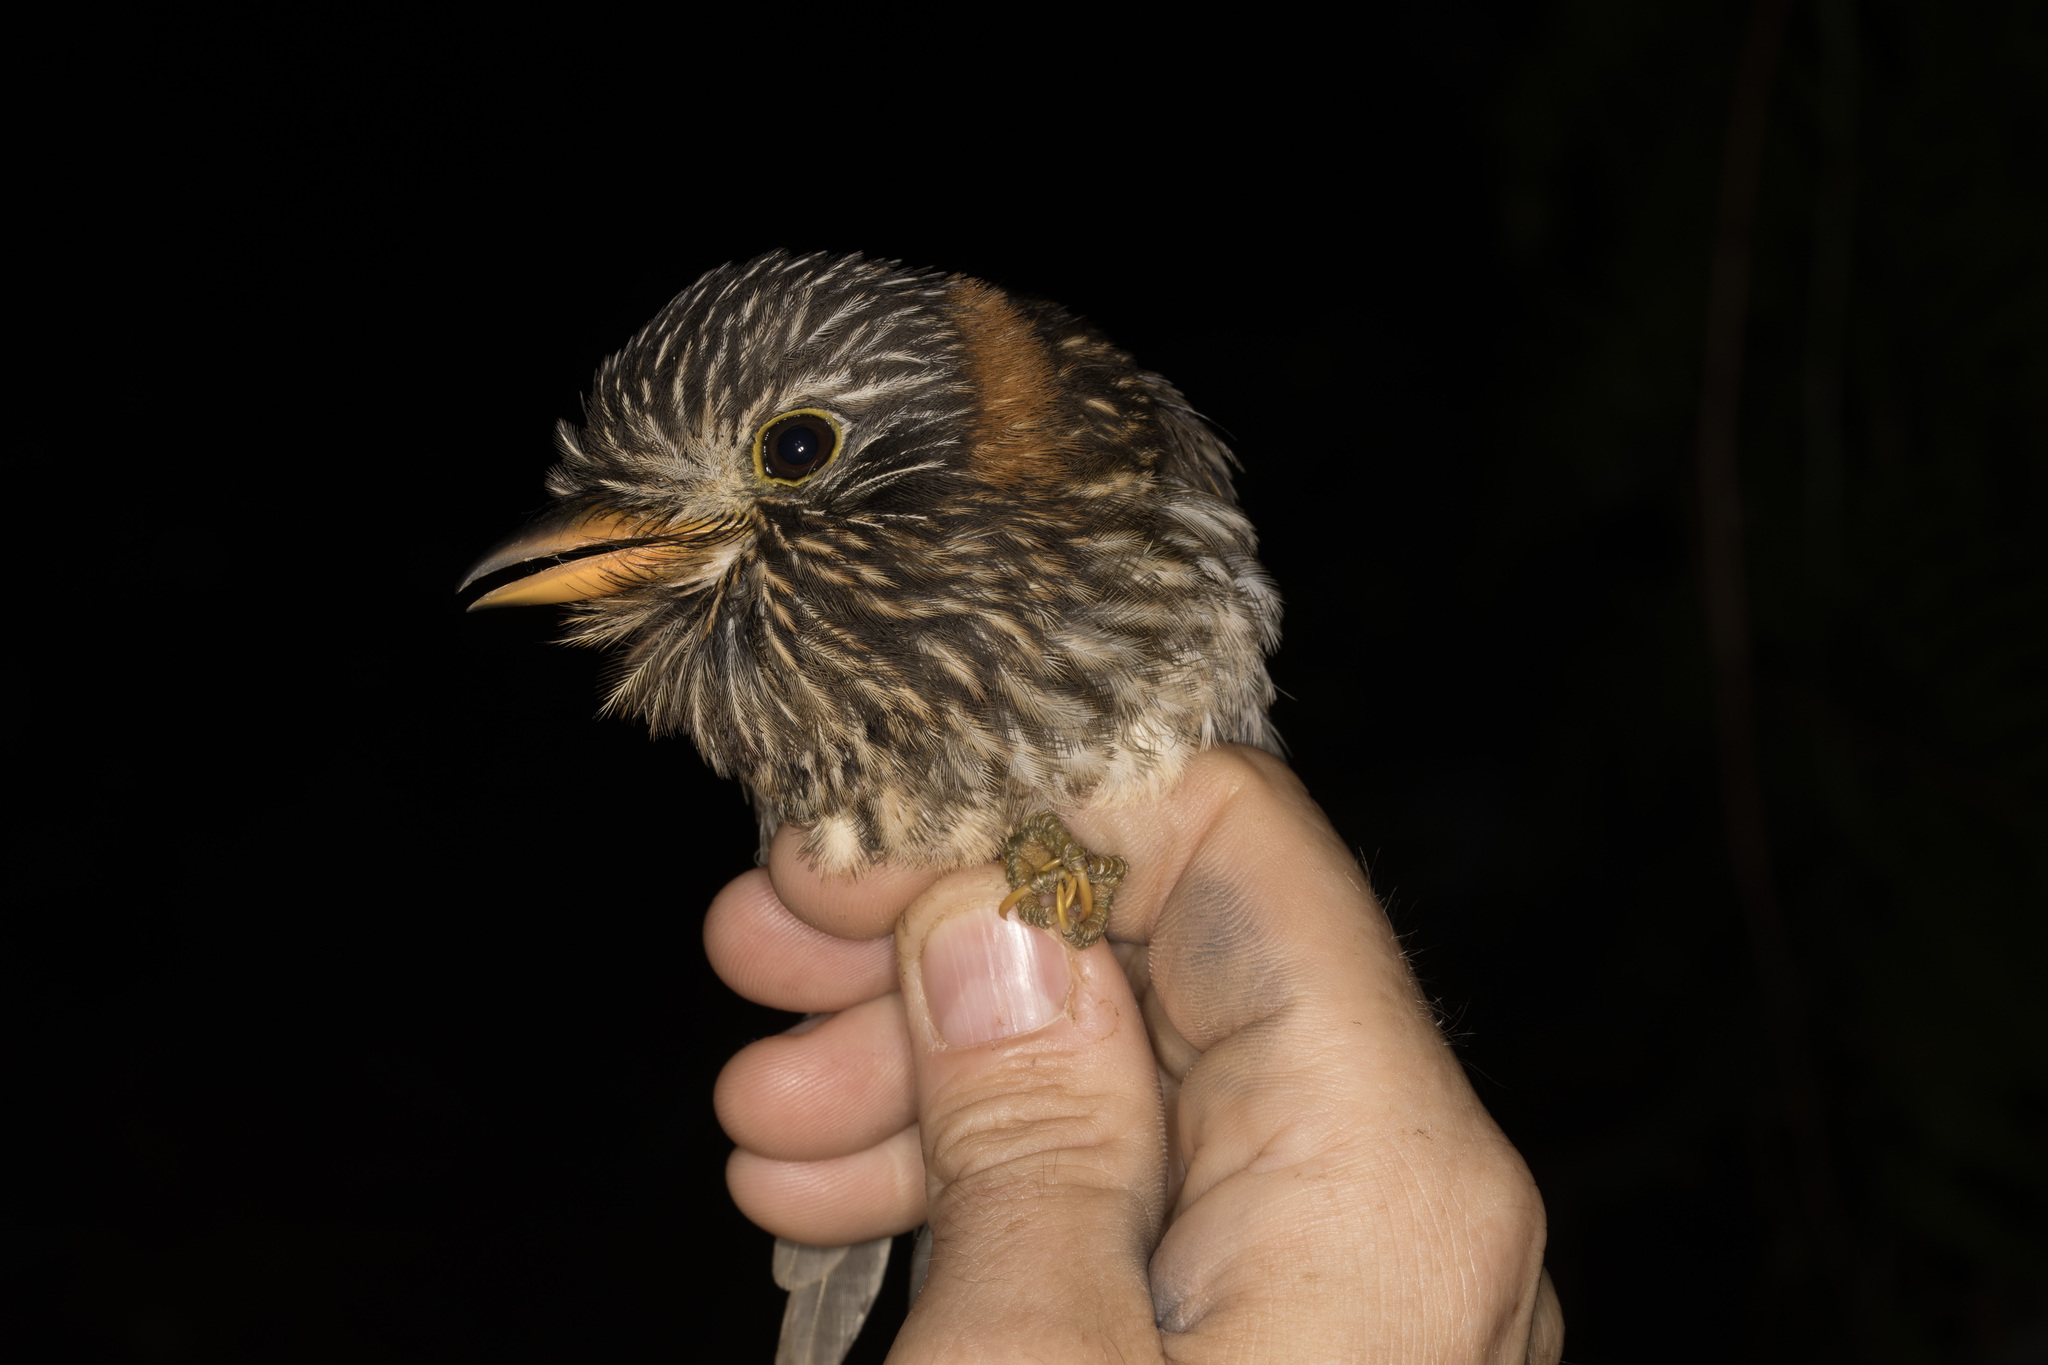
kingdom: Animalia
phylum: Chordata
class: Aves
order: Piciformes
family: Bucconidae
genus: Malacoptila
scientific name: Malacoptila semicincta
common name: Semicollared puffbird
